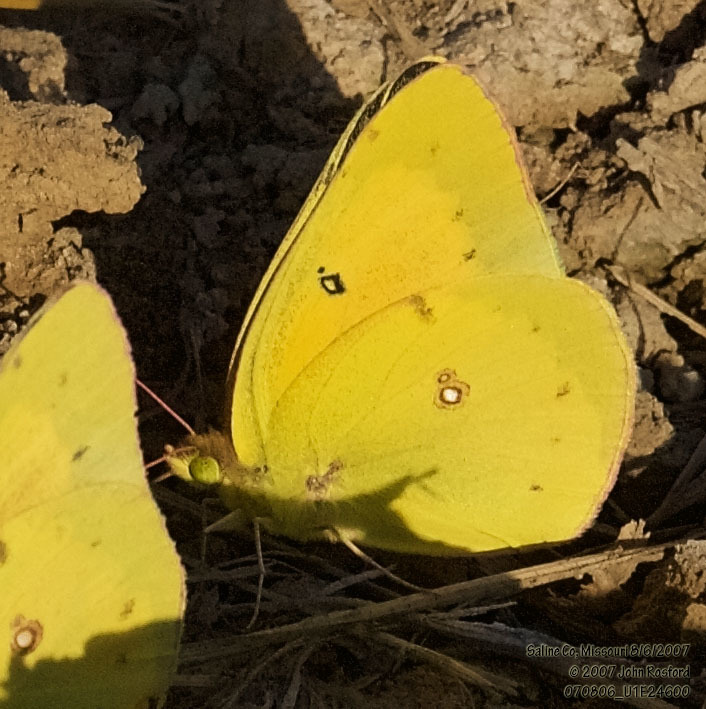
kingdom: Animalia
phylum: Arthropoda
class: Insecta
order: Lepidoptera
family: Pieridae
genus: Colias
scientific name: Colias eurytheme
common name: Alfalfa butterfly
